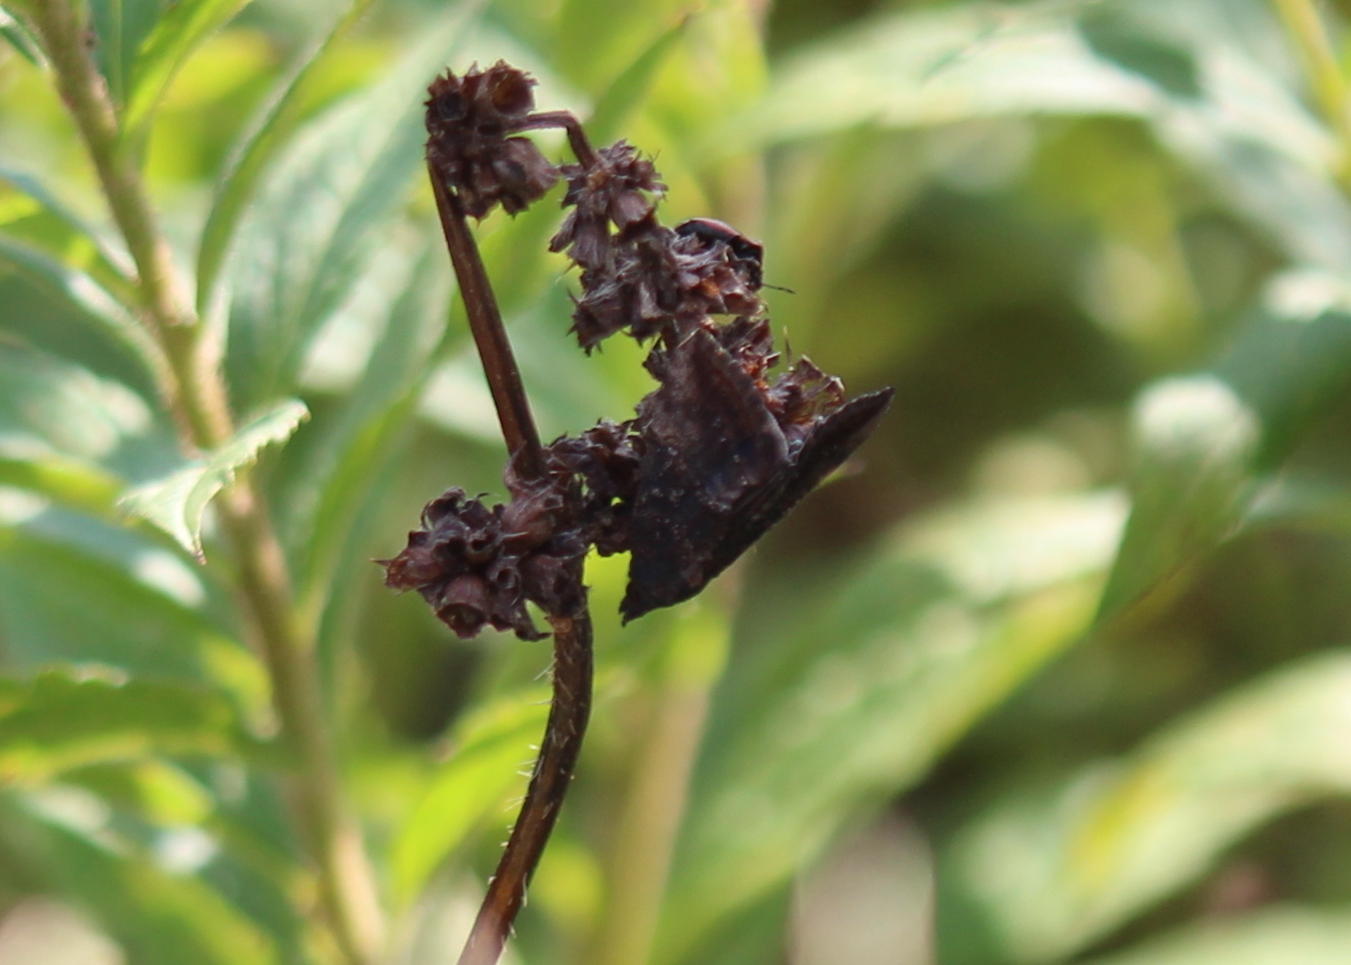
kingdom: Animalia
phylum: Arthropoda
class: Insecta
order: Lepidoptera
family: Erebidae
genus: Hypena
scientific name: Hypena scabra
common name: Green cloverworm
